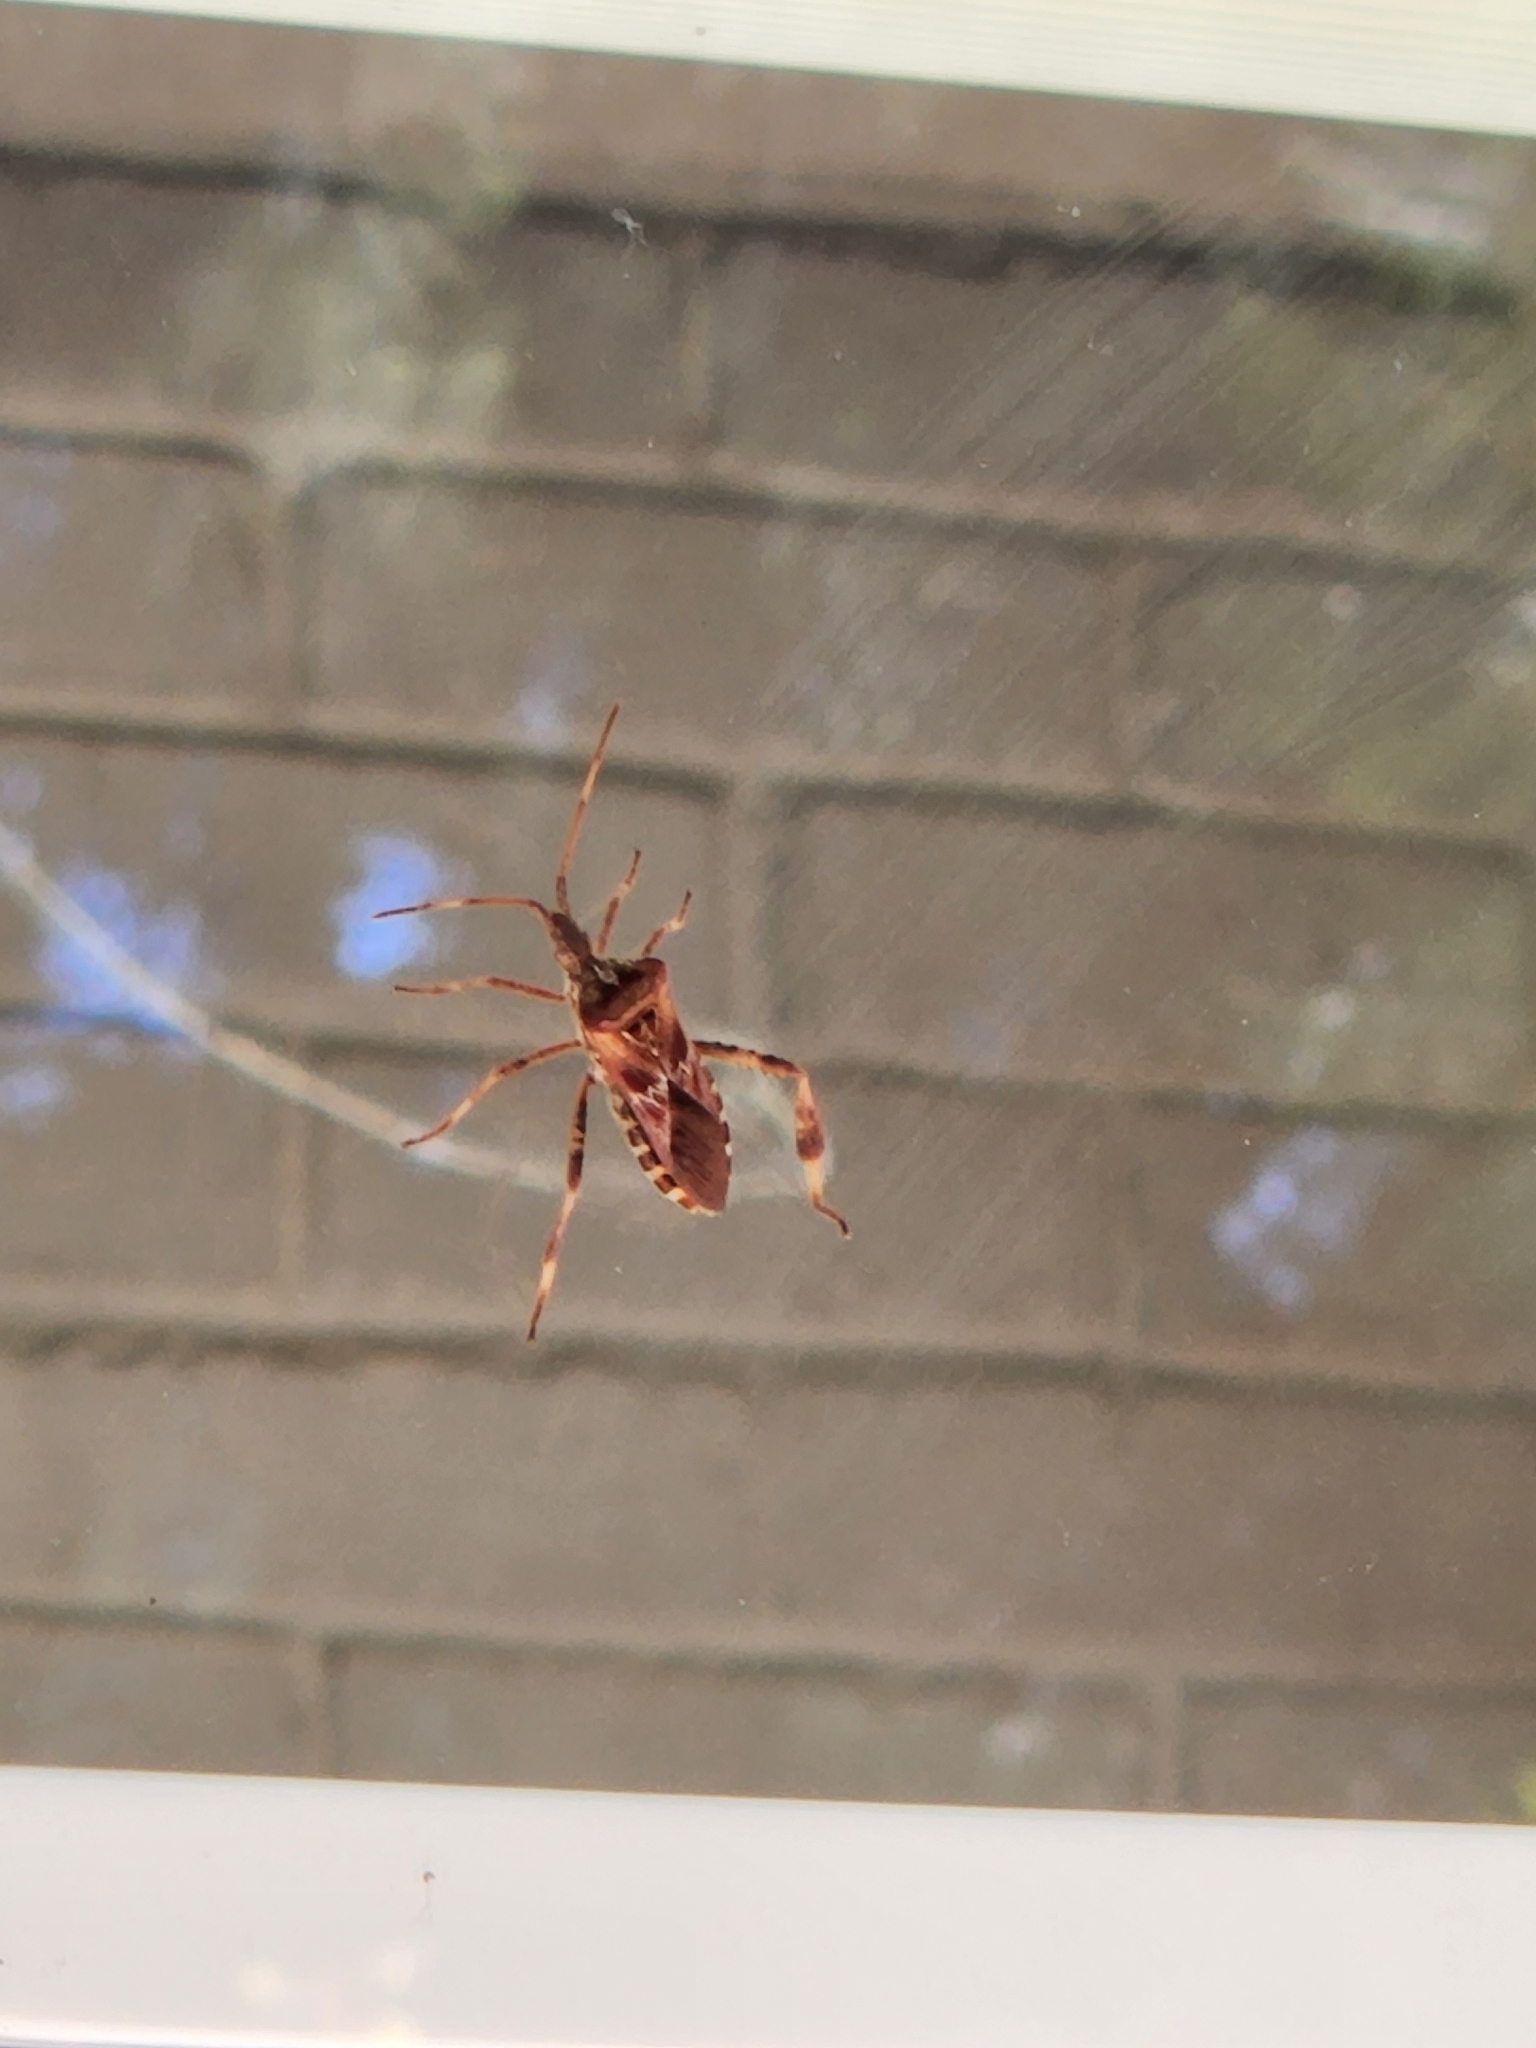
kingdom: Animalia
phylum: Arthropoda
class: Insecta
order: Hemiptera
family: Coreidae
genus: Leptoglossus
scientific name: Leptoglossus occidentalis
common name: Western conifer-seed bug
